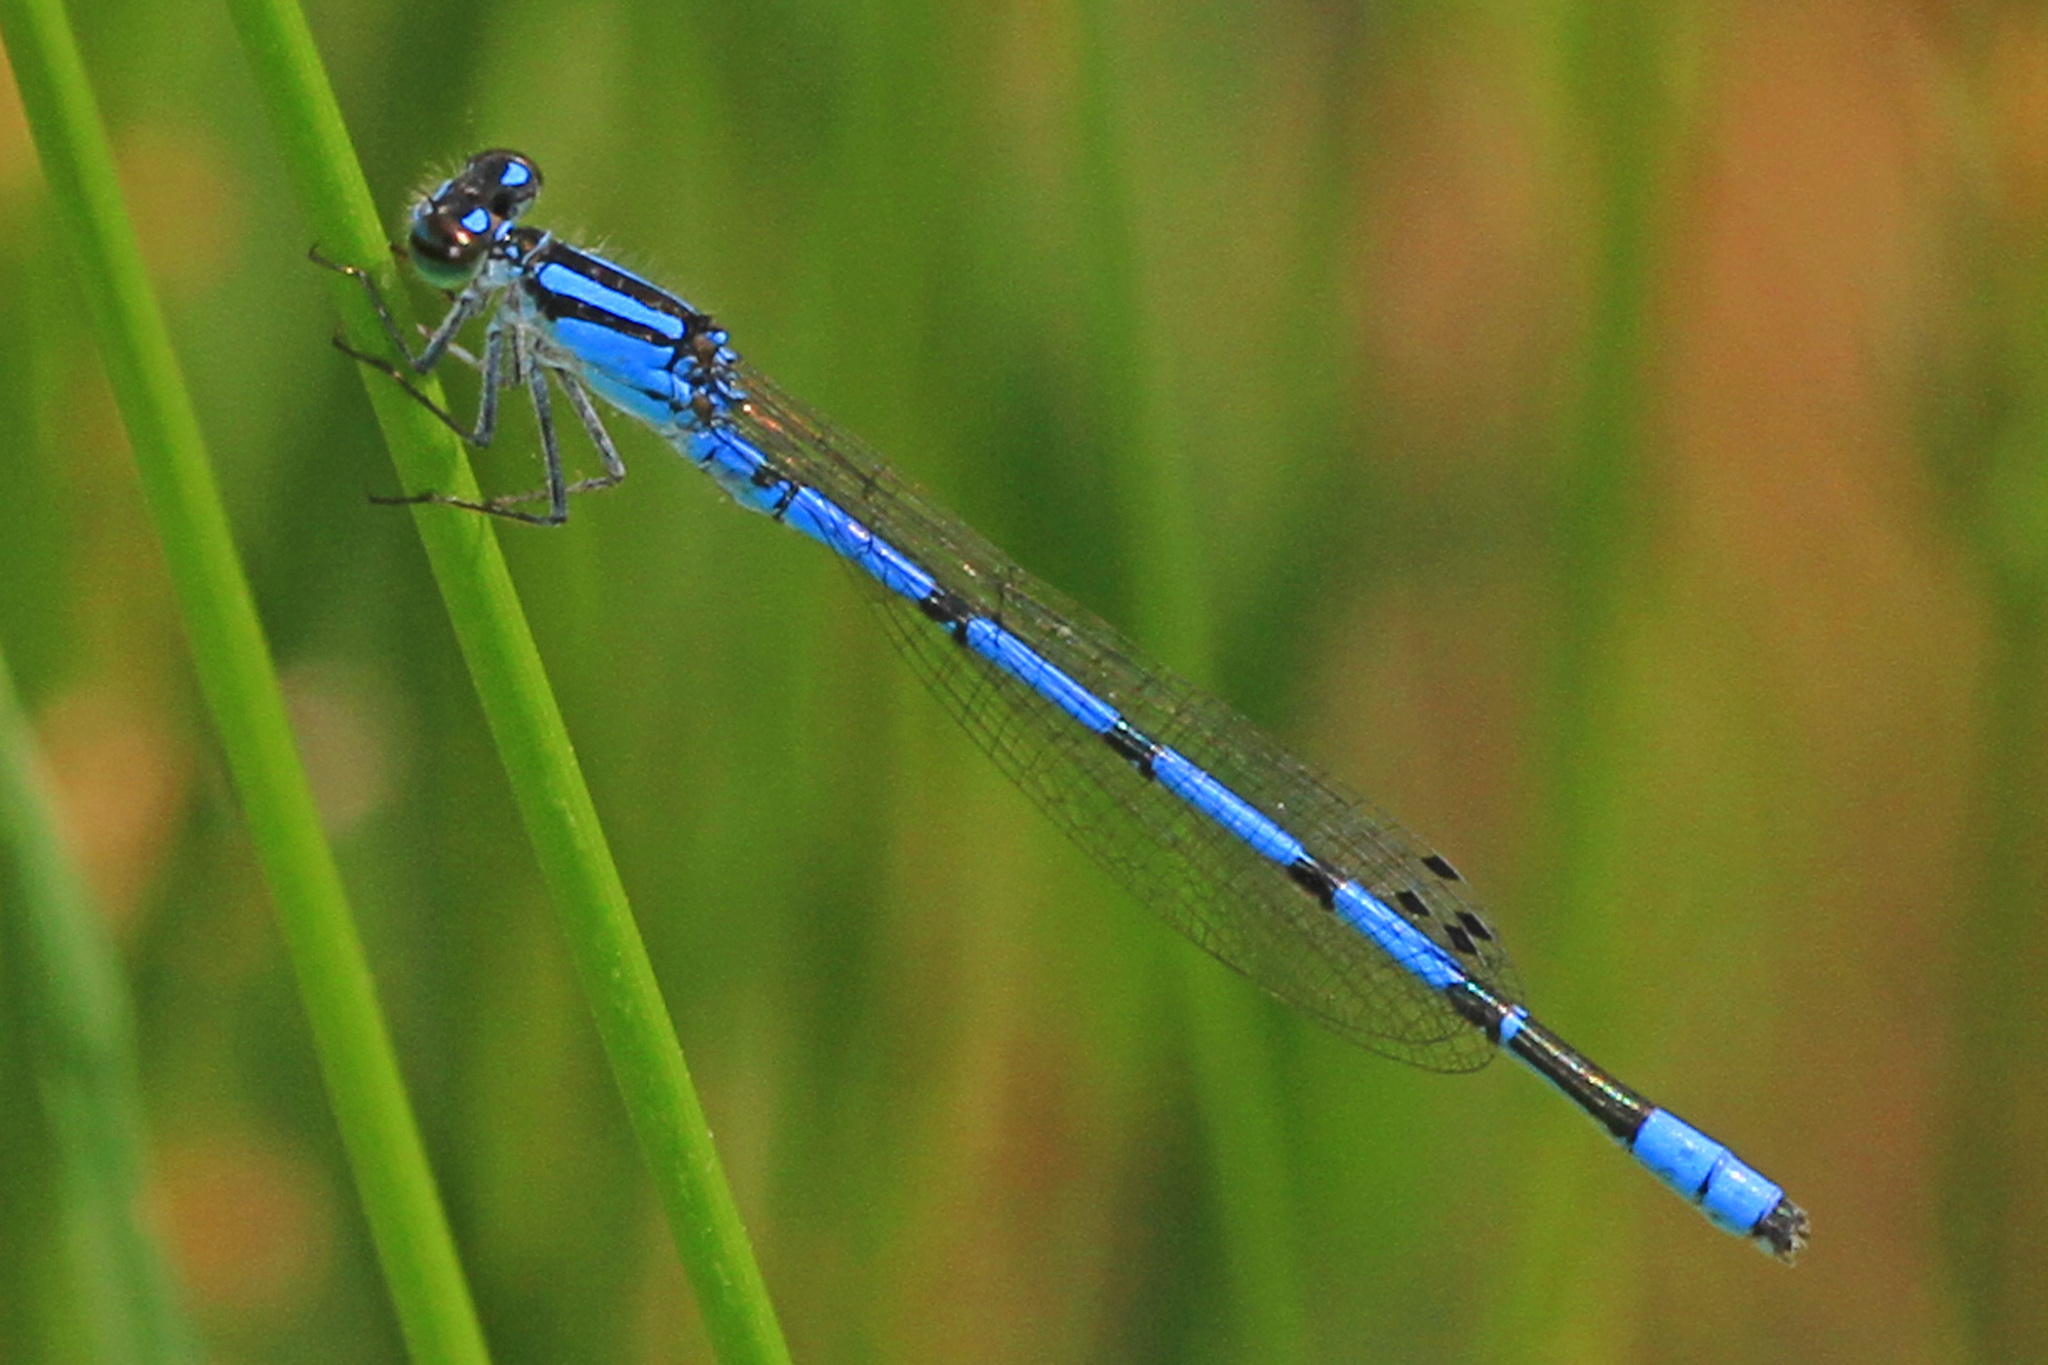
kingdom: Animalia
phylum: Arthropoda
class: Insecta
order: Odonata
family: Coenagrionidae
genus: Enallagma
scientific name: Enallagma hageni
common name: Hagen's bluet
